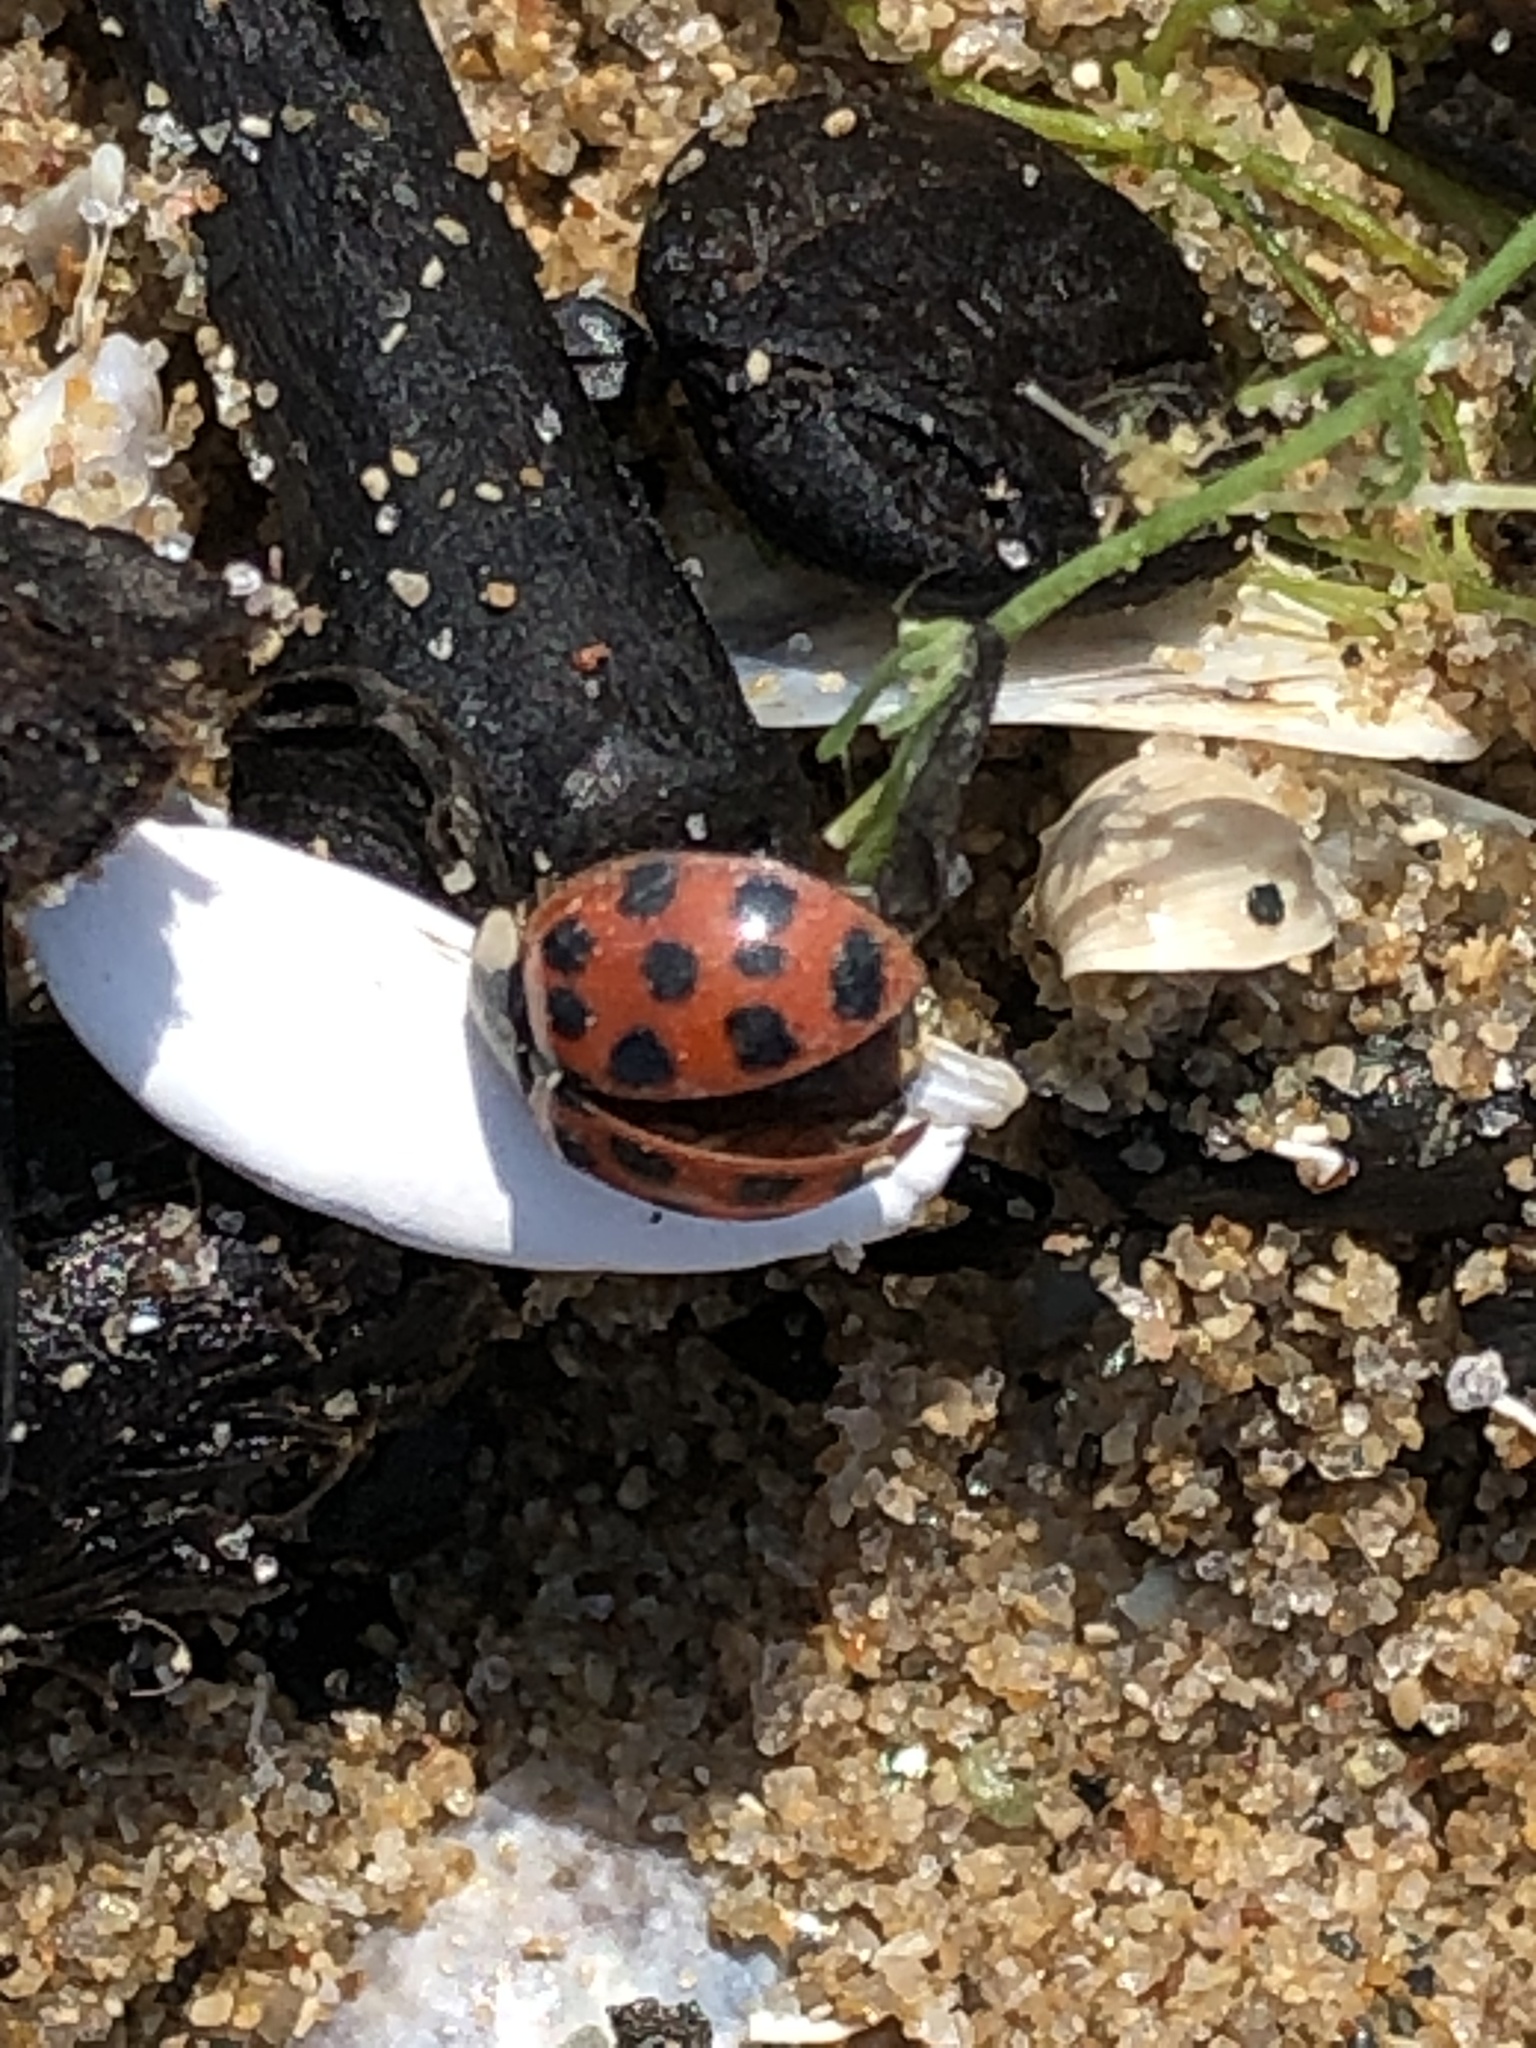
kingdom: Animalia
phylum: Arthropoda
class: Insecta
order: Coleoptera
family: Coccinellidae
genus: Harmonia
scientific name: Harmonia axyridis
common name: Harlequin ladybird
